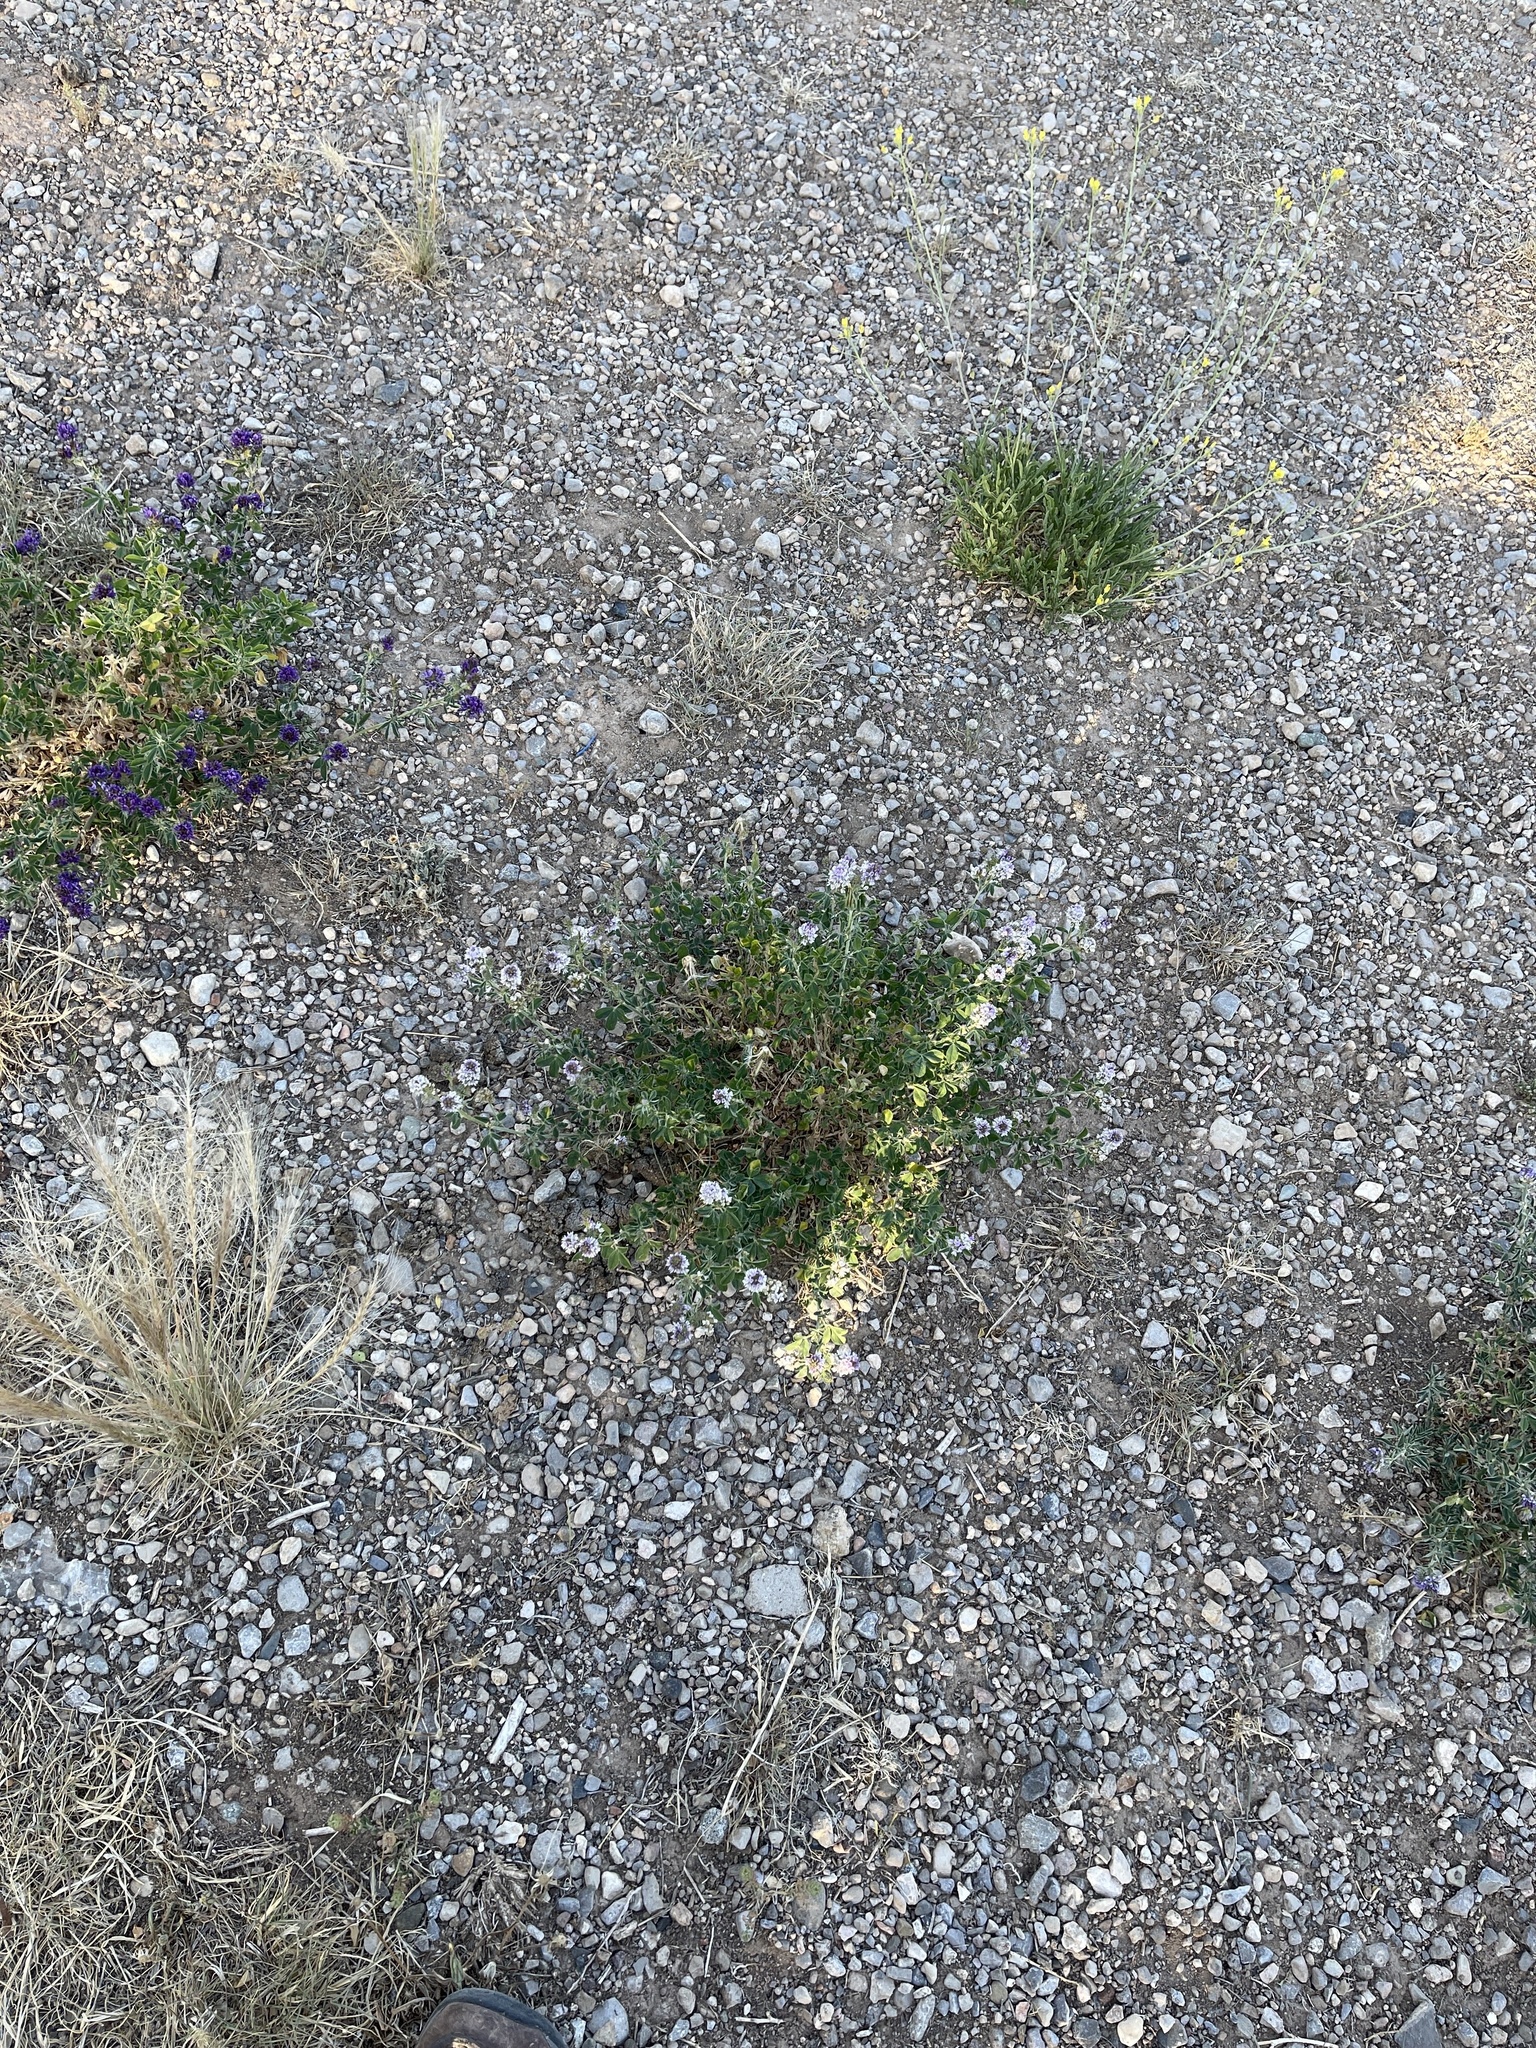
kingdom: Plantae
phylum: Tracheophyta
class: Magnoliopsida
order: Fabales
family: Fabaceae
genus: Medicago
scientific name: Medicago sativa
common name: Alfalfa
